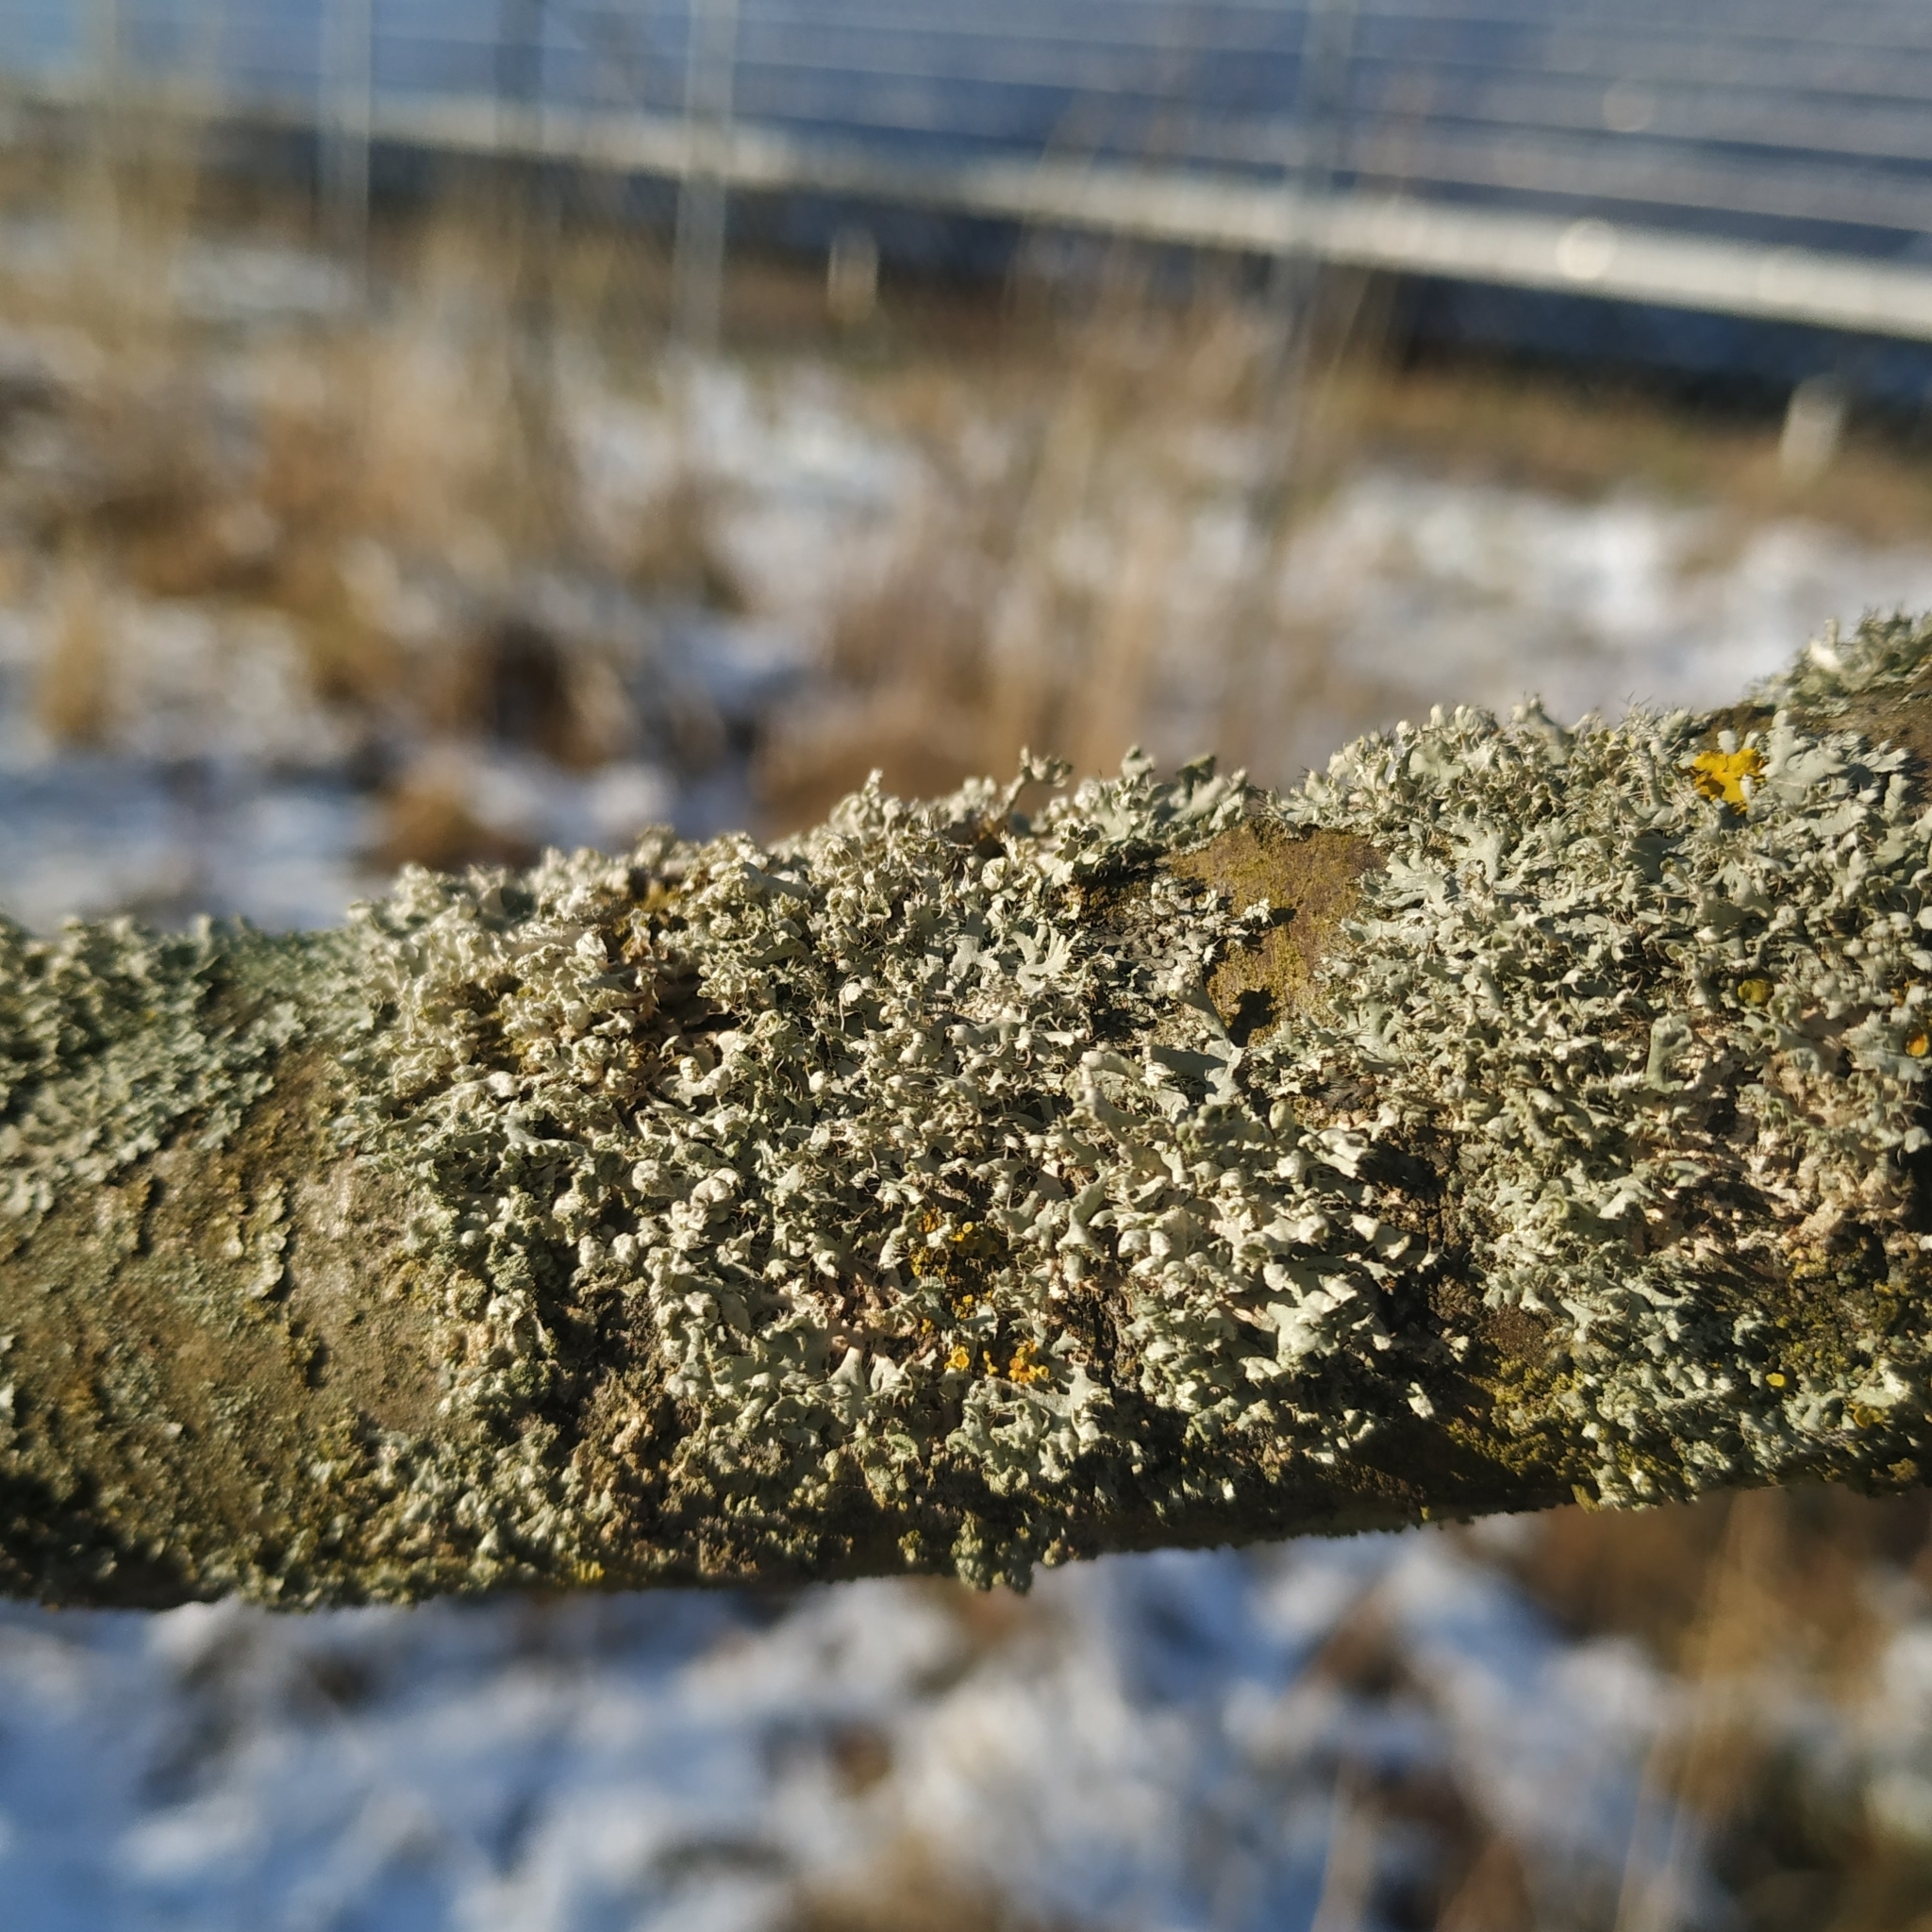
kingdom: Fungi
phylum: Ascomycota
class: Lecanoromycetes
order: Caliciales
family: Physciaceae
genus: Physcia
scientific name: Physcia adscendens
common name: Hooded rosette lichen
